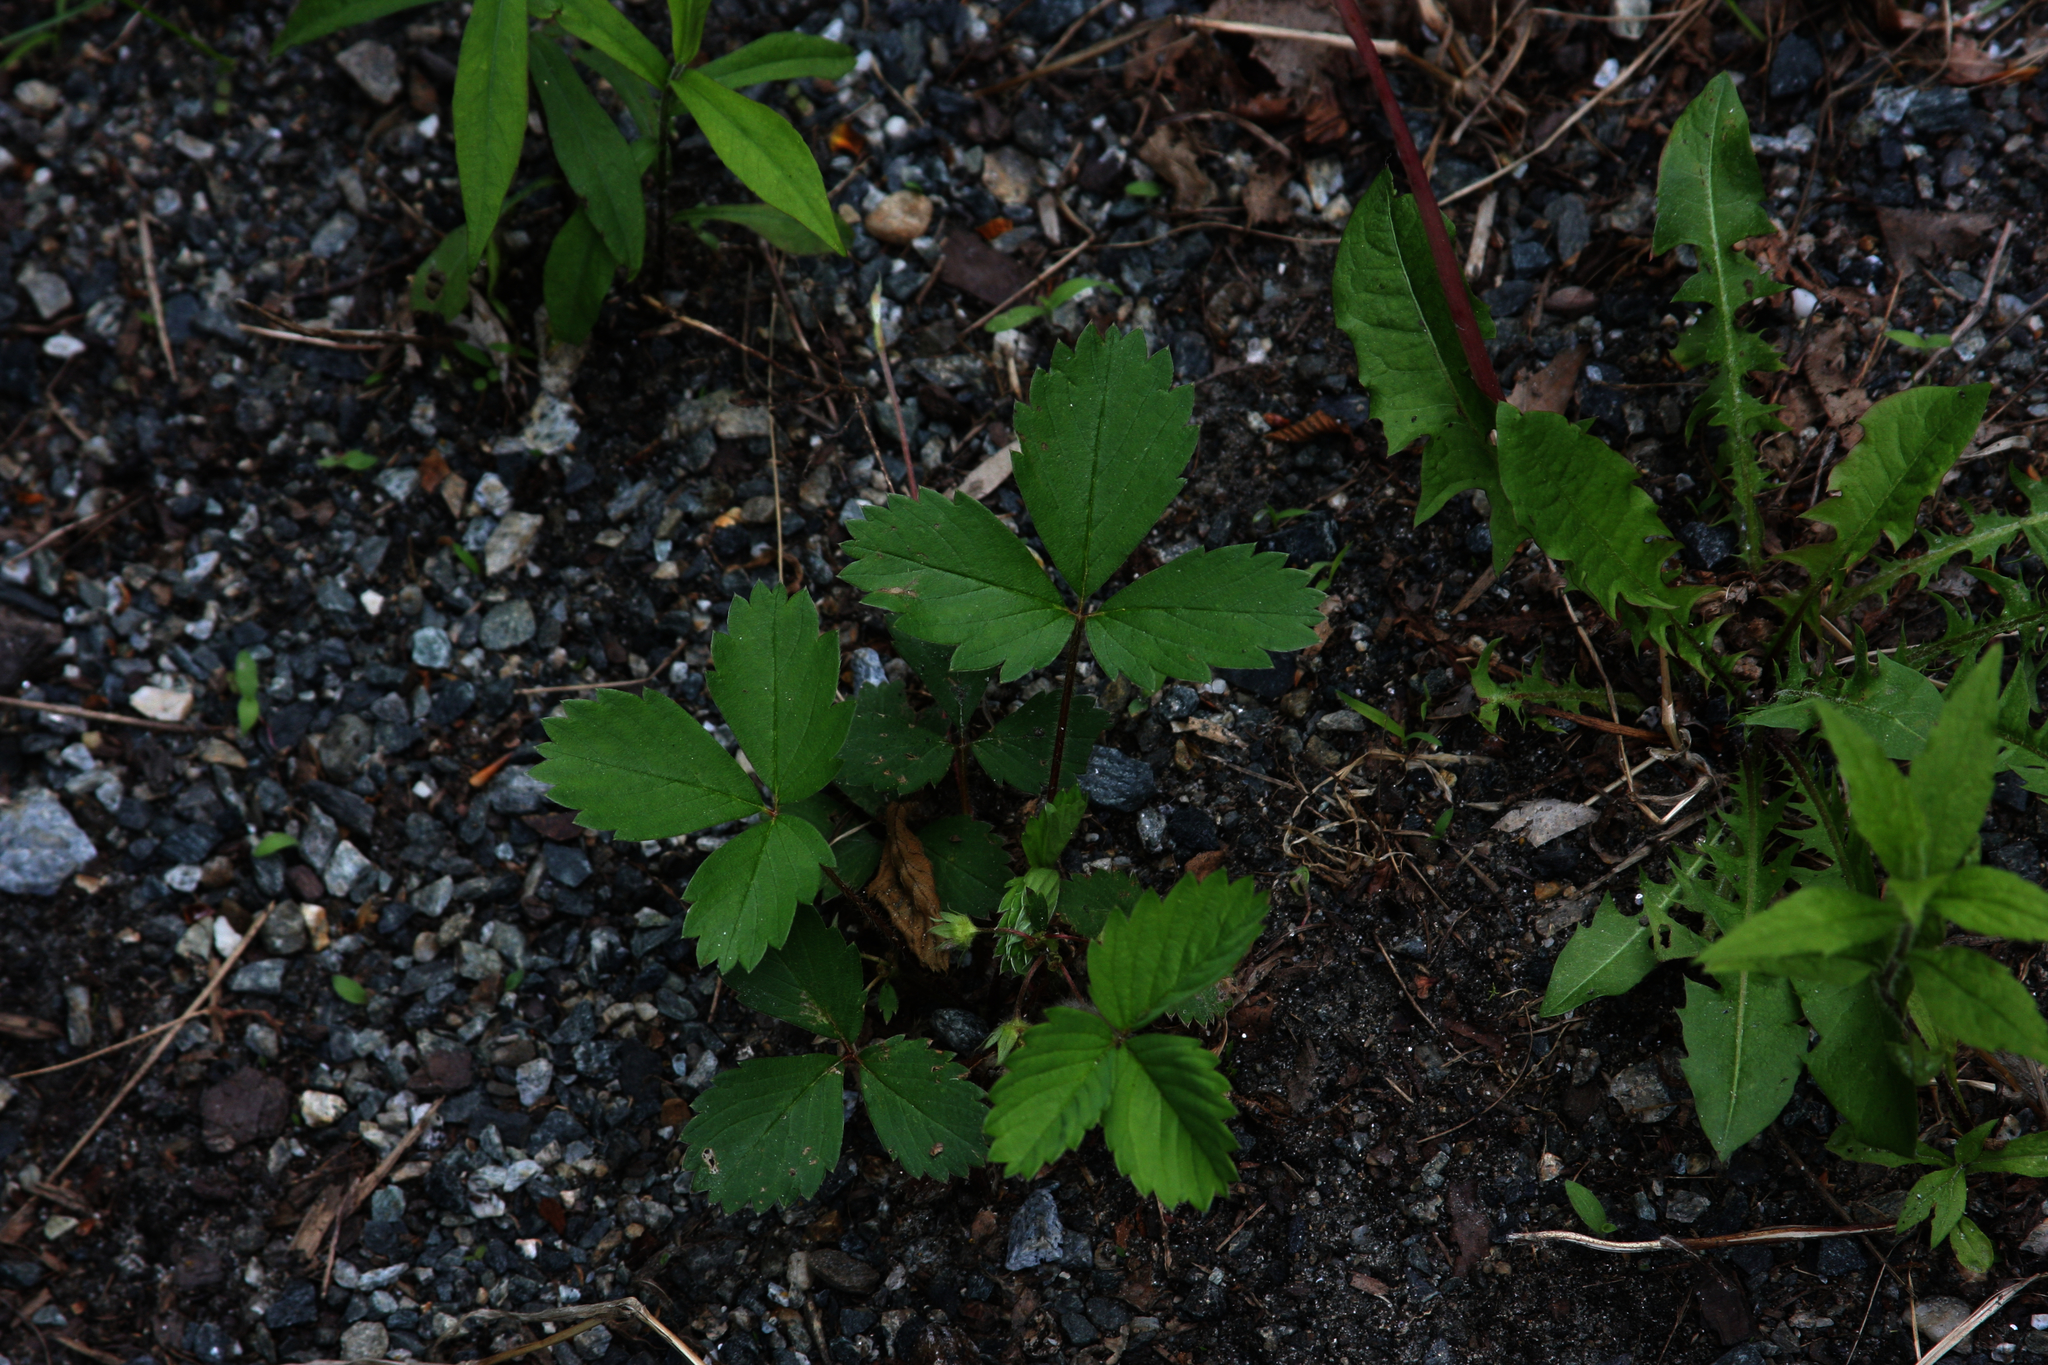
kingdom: Plantae
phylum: Tracheophyta
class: Magnoliopsida
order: Asterales
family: Asteraceae
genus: Taraxacum
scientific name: Taraxacum officinale
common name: Common dandelion
